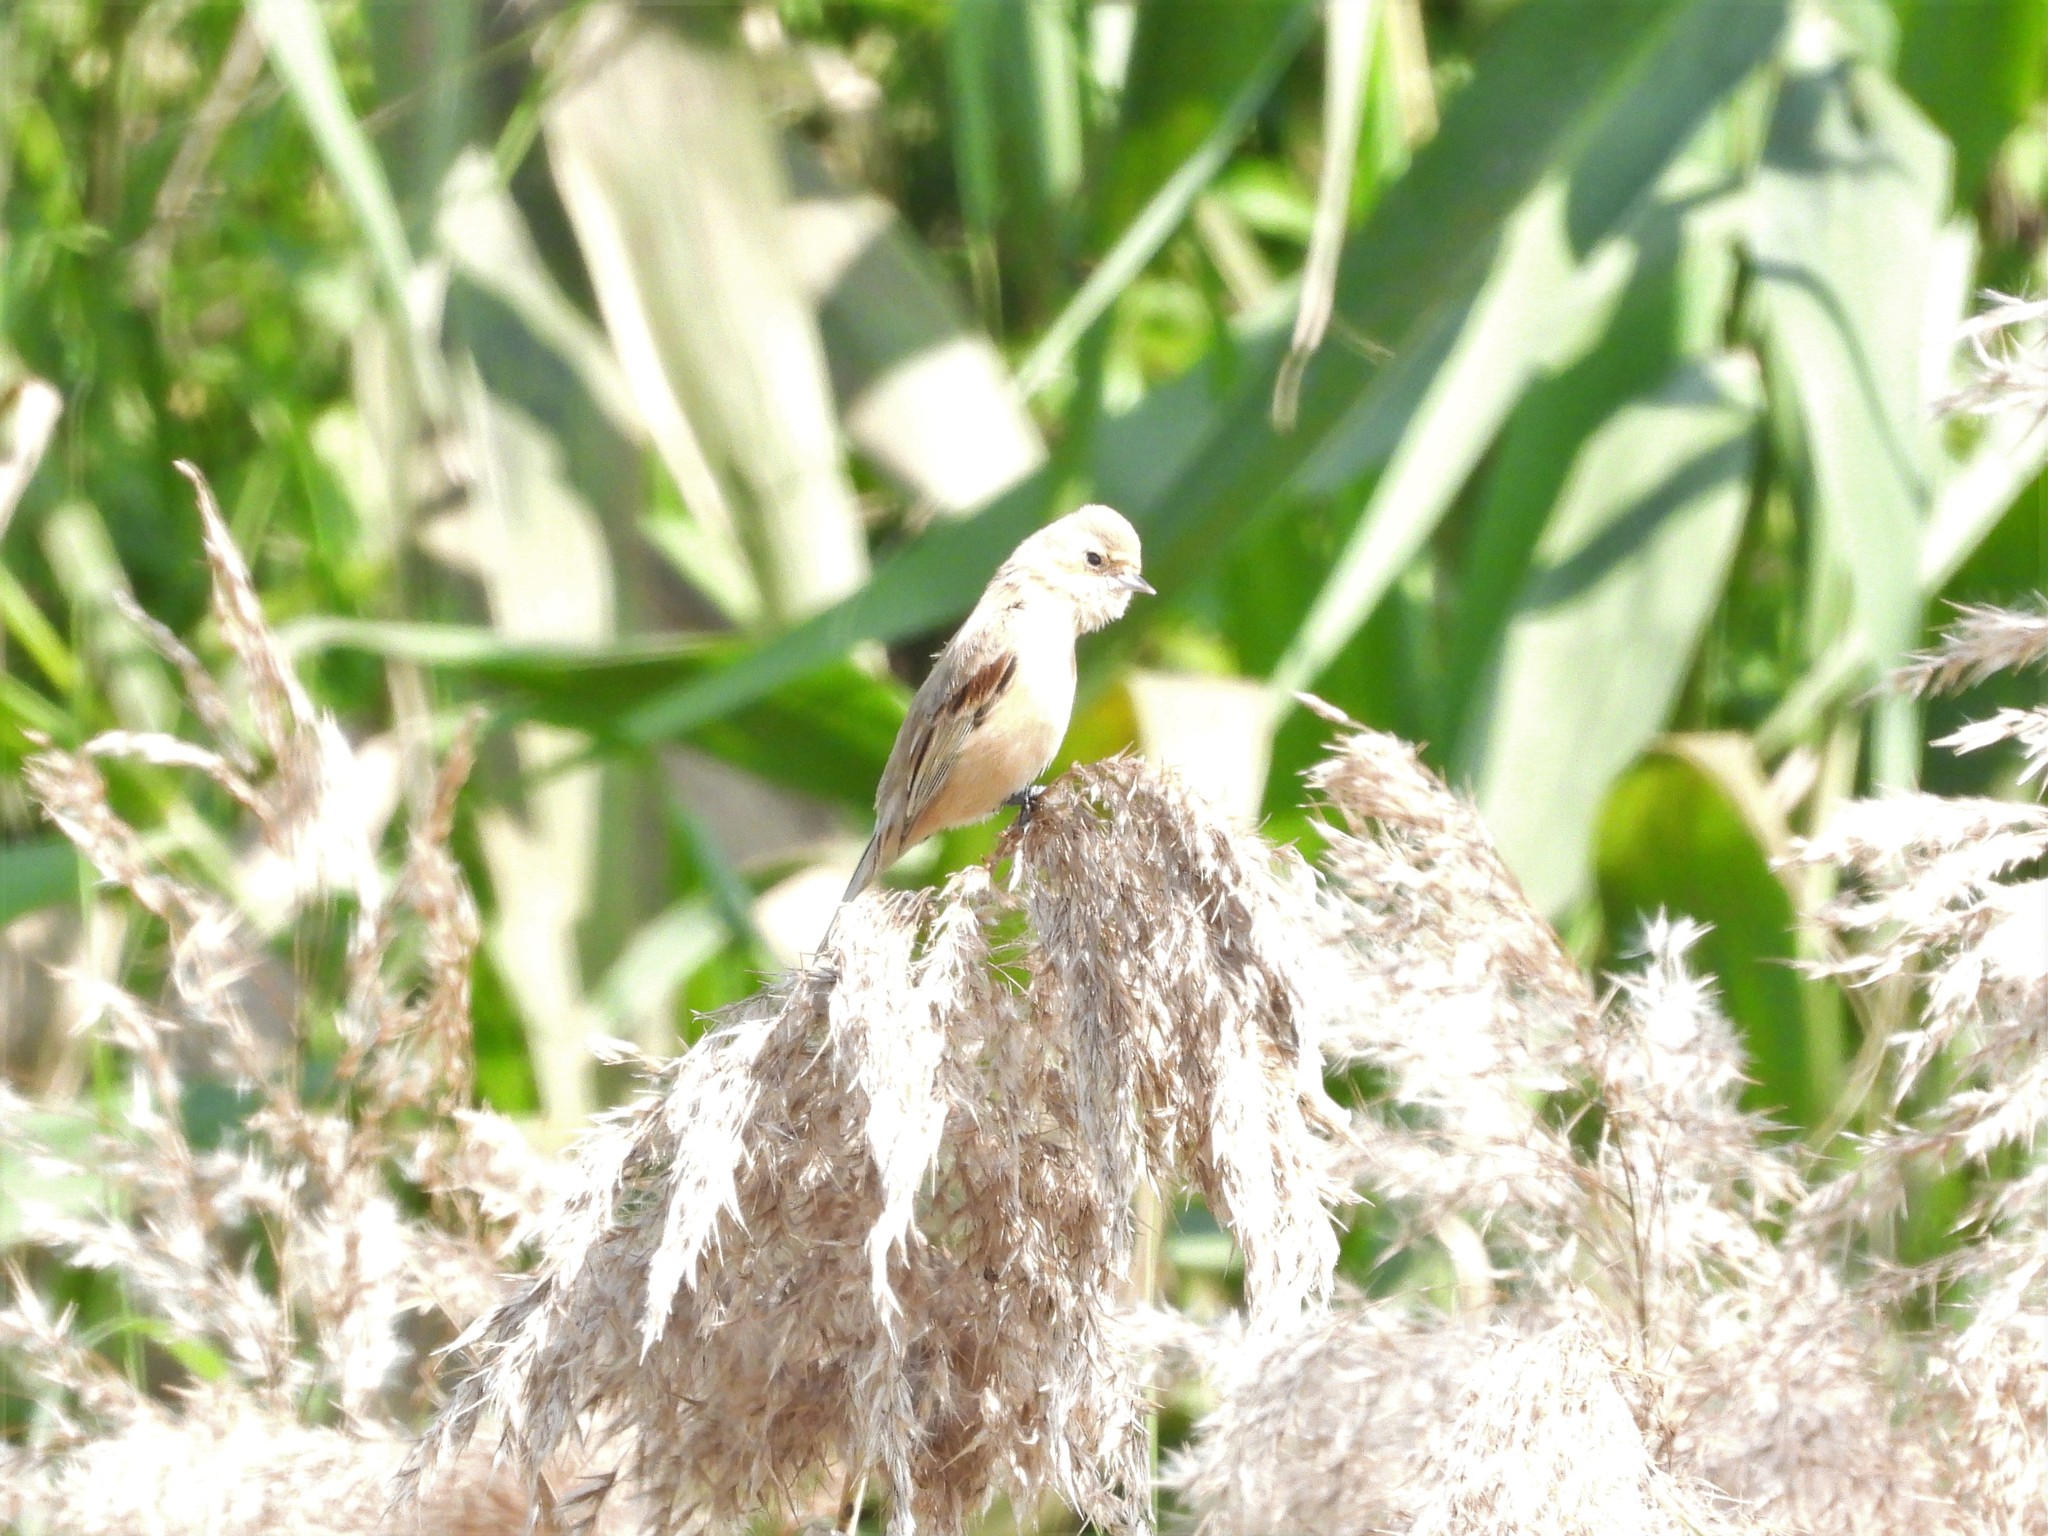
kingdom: Animalia
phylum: Chordata
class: Aves
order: Passeriformes
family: Remizidae
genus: Remiz
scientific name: Remiz consobrinus
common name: Chinese penduline tit
